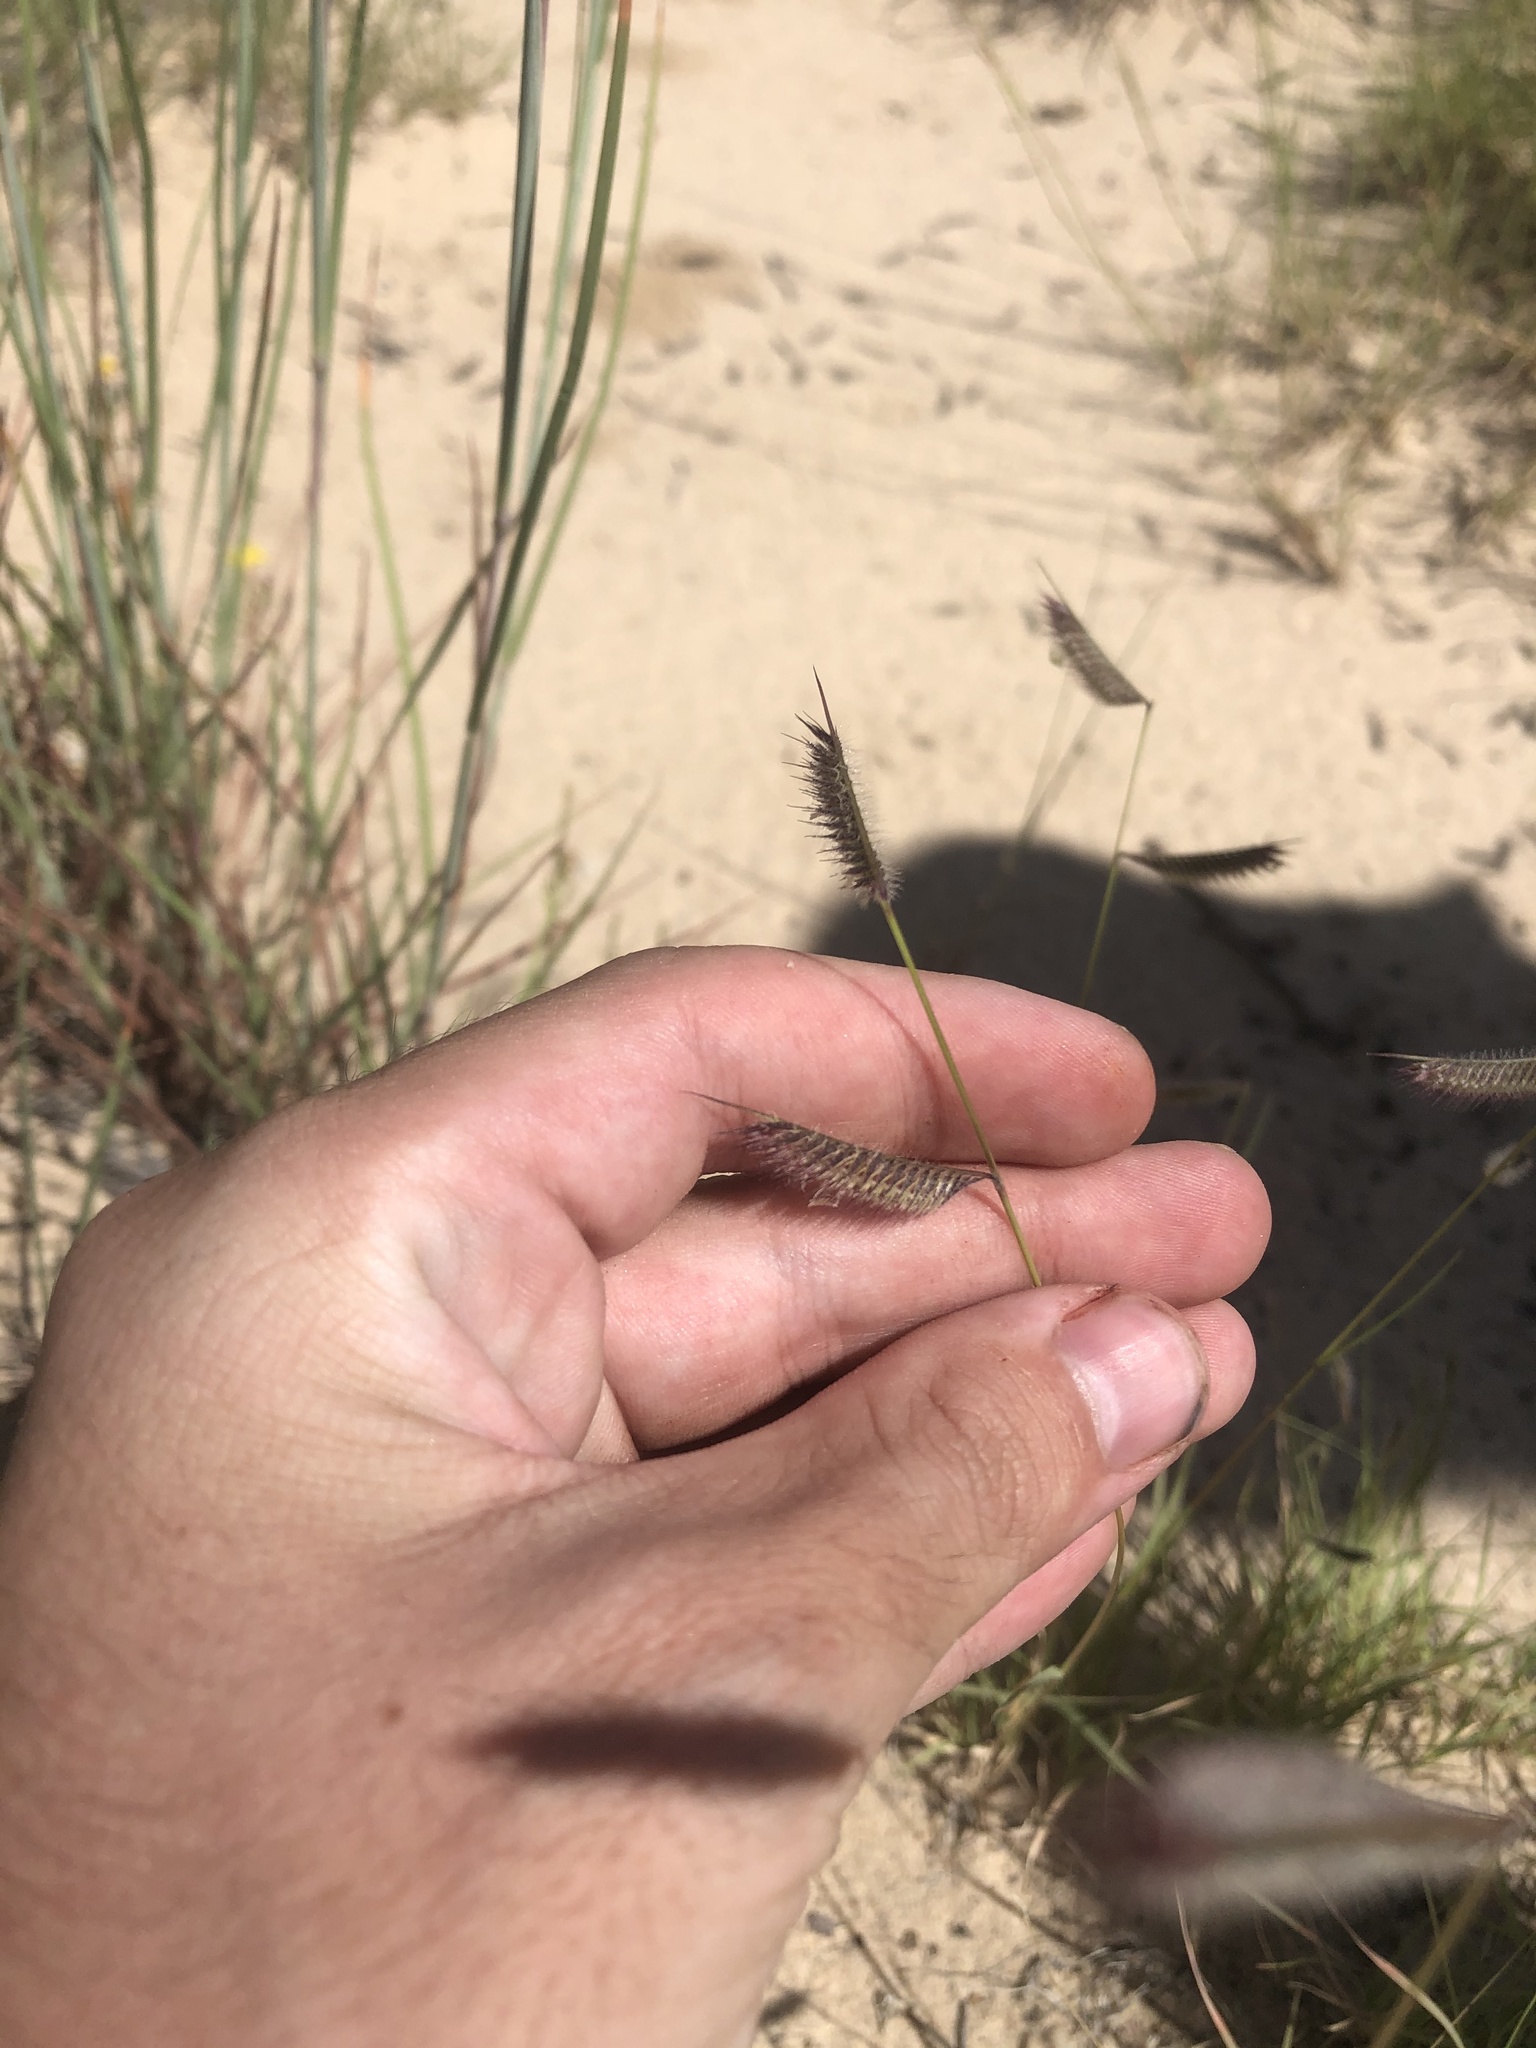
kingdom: Plantae
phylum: Tracheophyta
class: Liliopsida
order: Poales
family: Poaceae
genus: Bouteloua
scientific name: Bouteloua hirsuta
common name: Hairy grama
